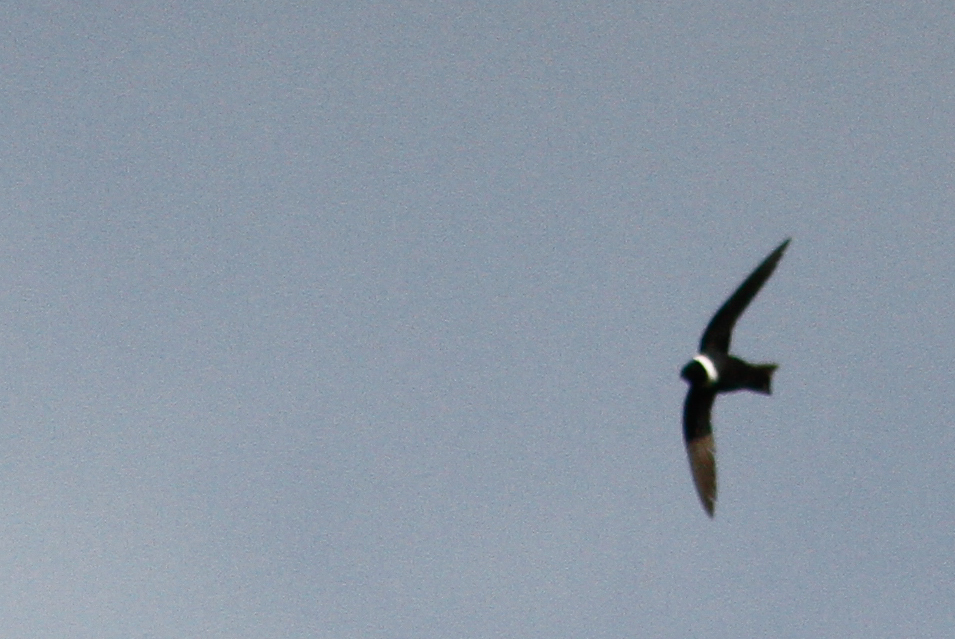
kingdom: Animalia
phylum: Chordata
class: Aves
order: Apodiformes
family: Apodidae
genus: Streptoprocne
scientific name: Streptoprocne zonaris
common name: White-collared swift
